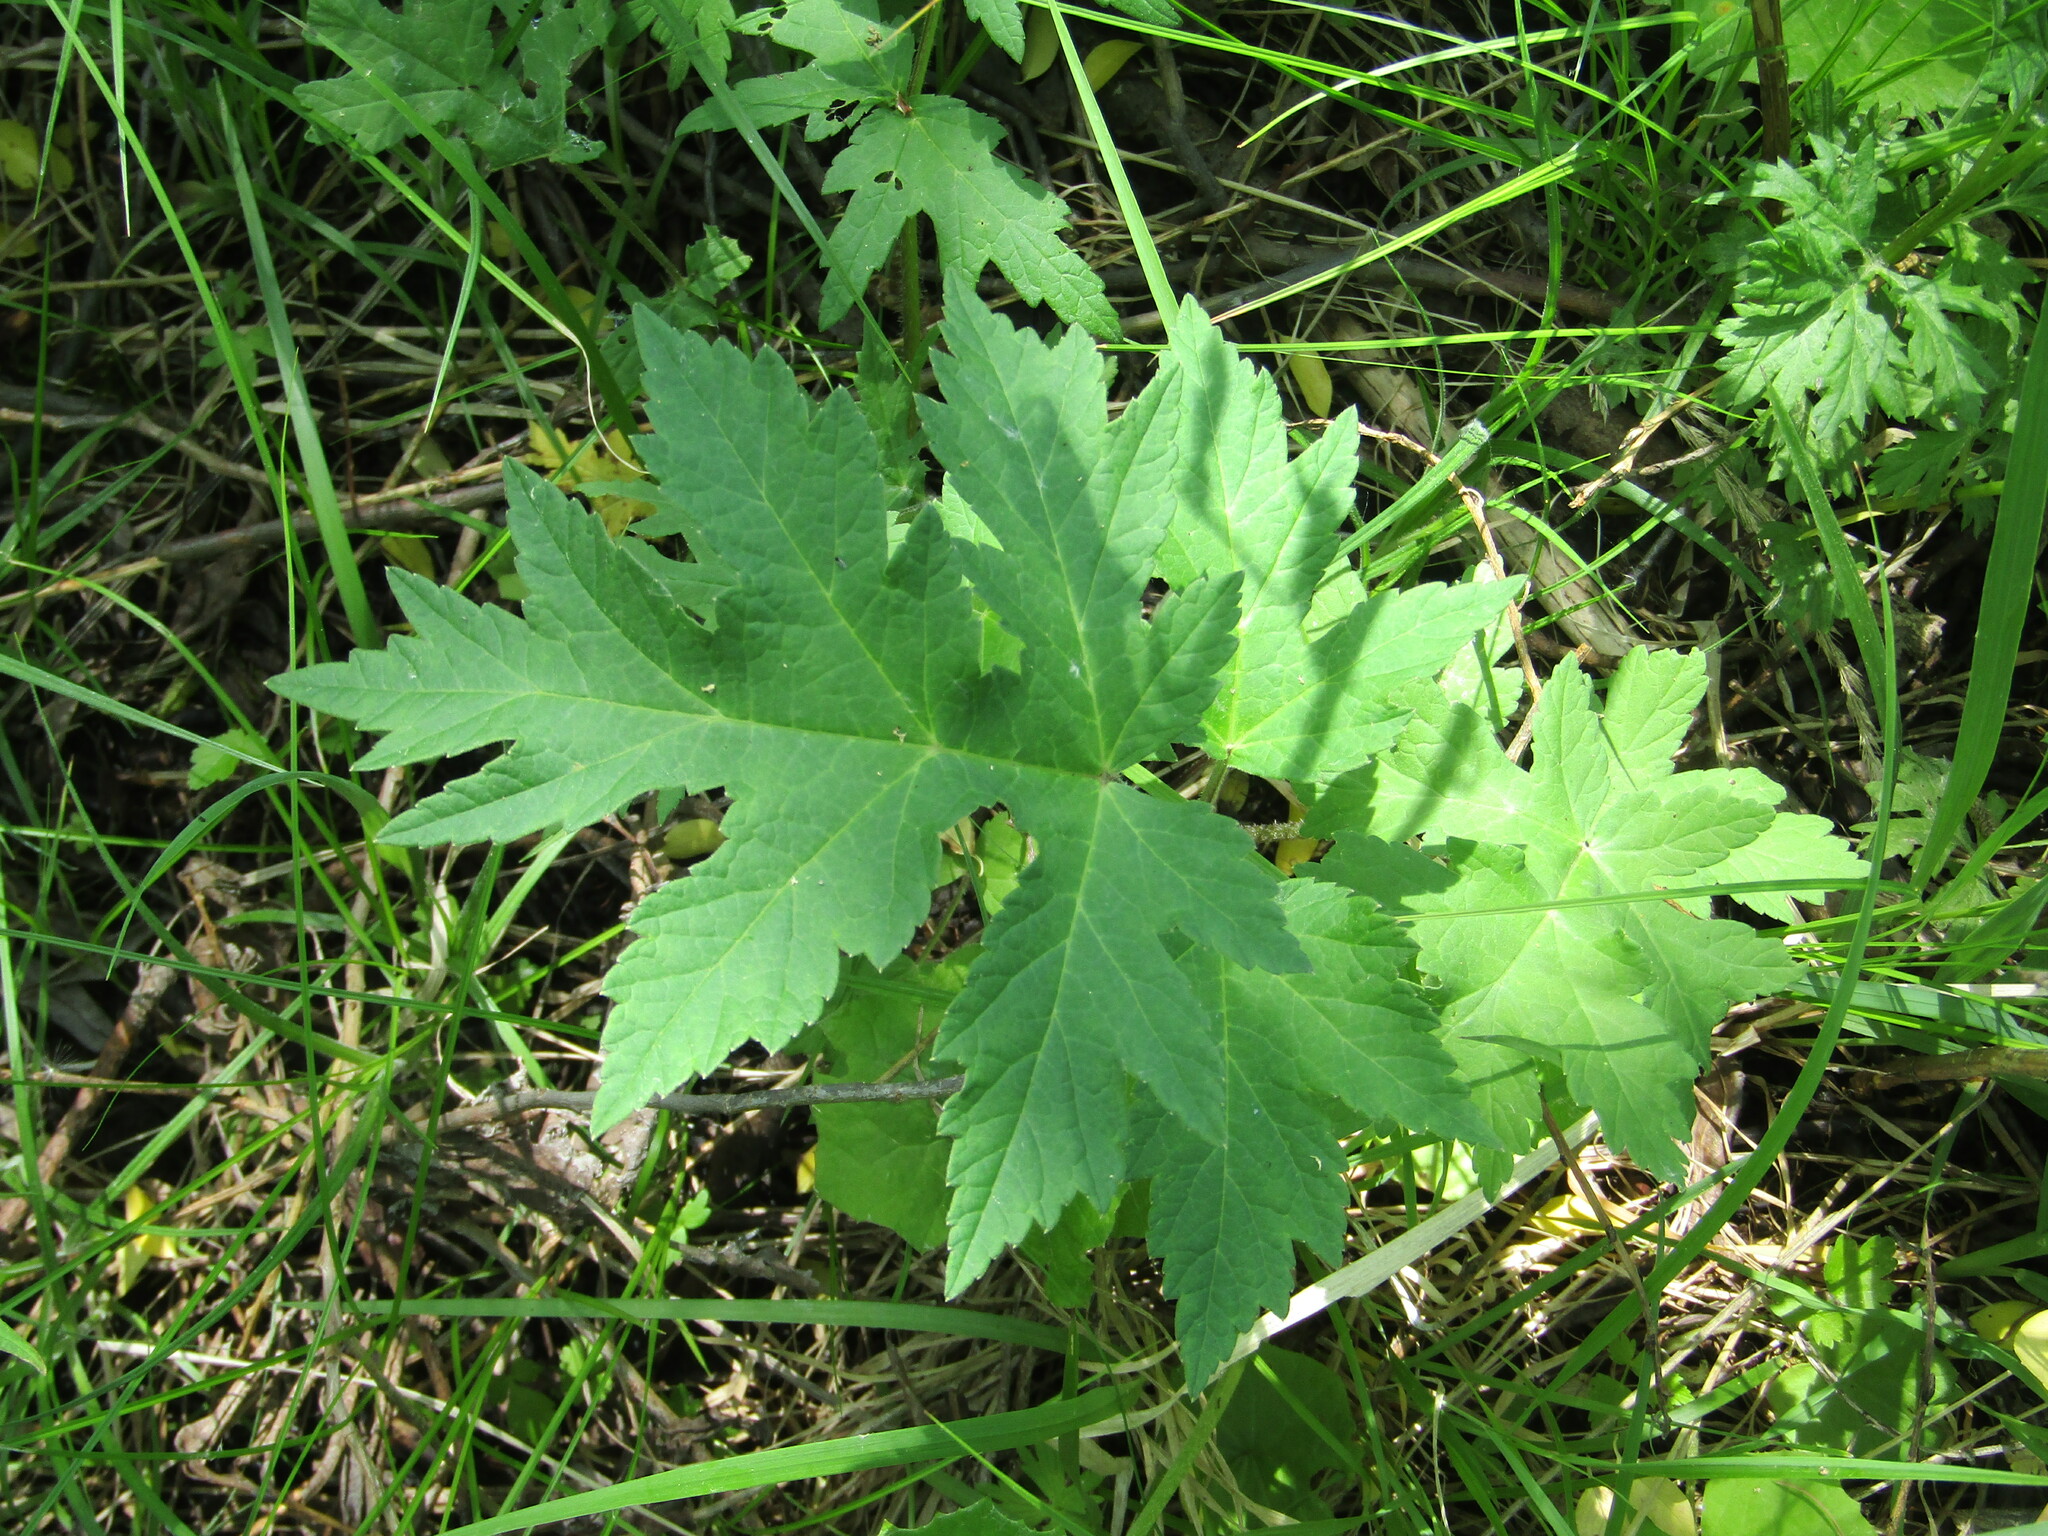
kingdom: Plantae
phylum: Tracheophyta
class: Magnoliopsida
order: Apiales
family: Apiaceae
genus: Heracleum
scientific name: Heracleum sphondylium
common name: Hogweed
